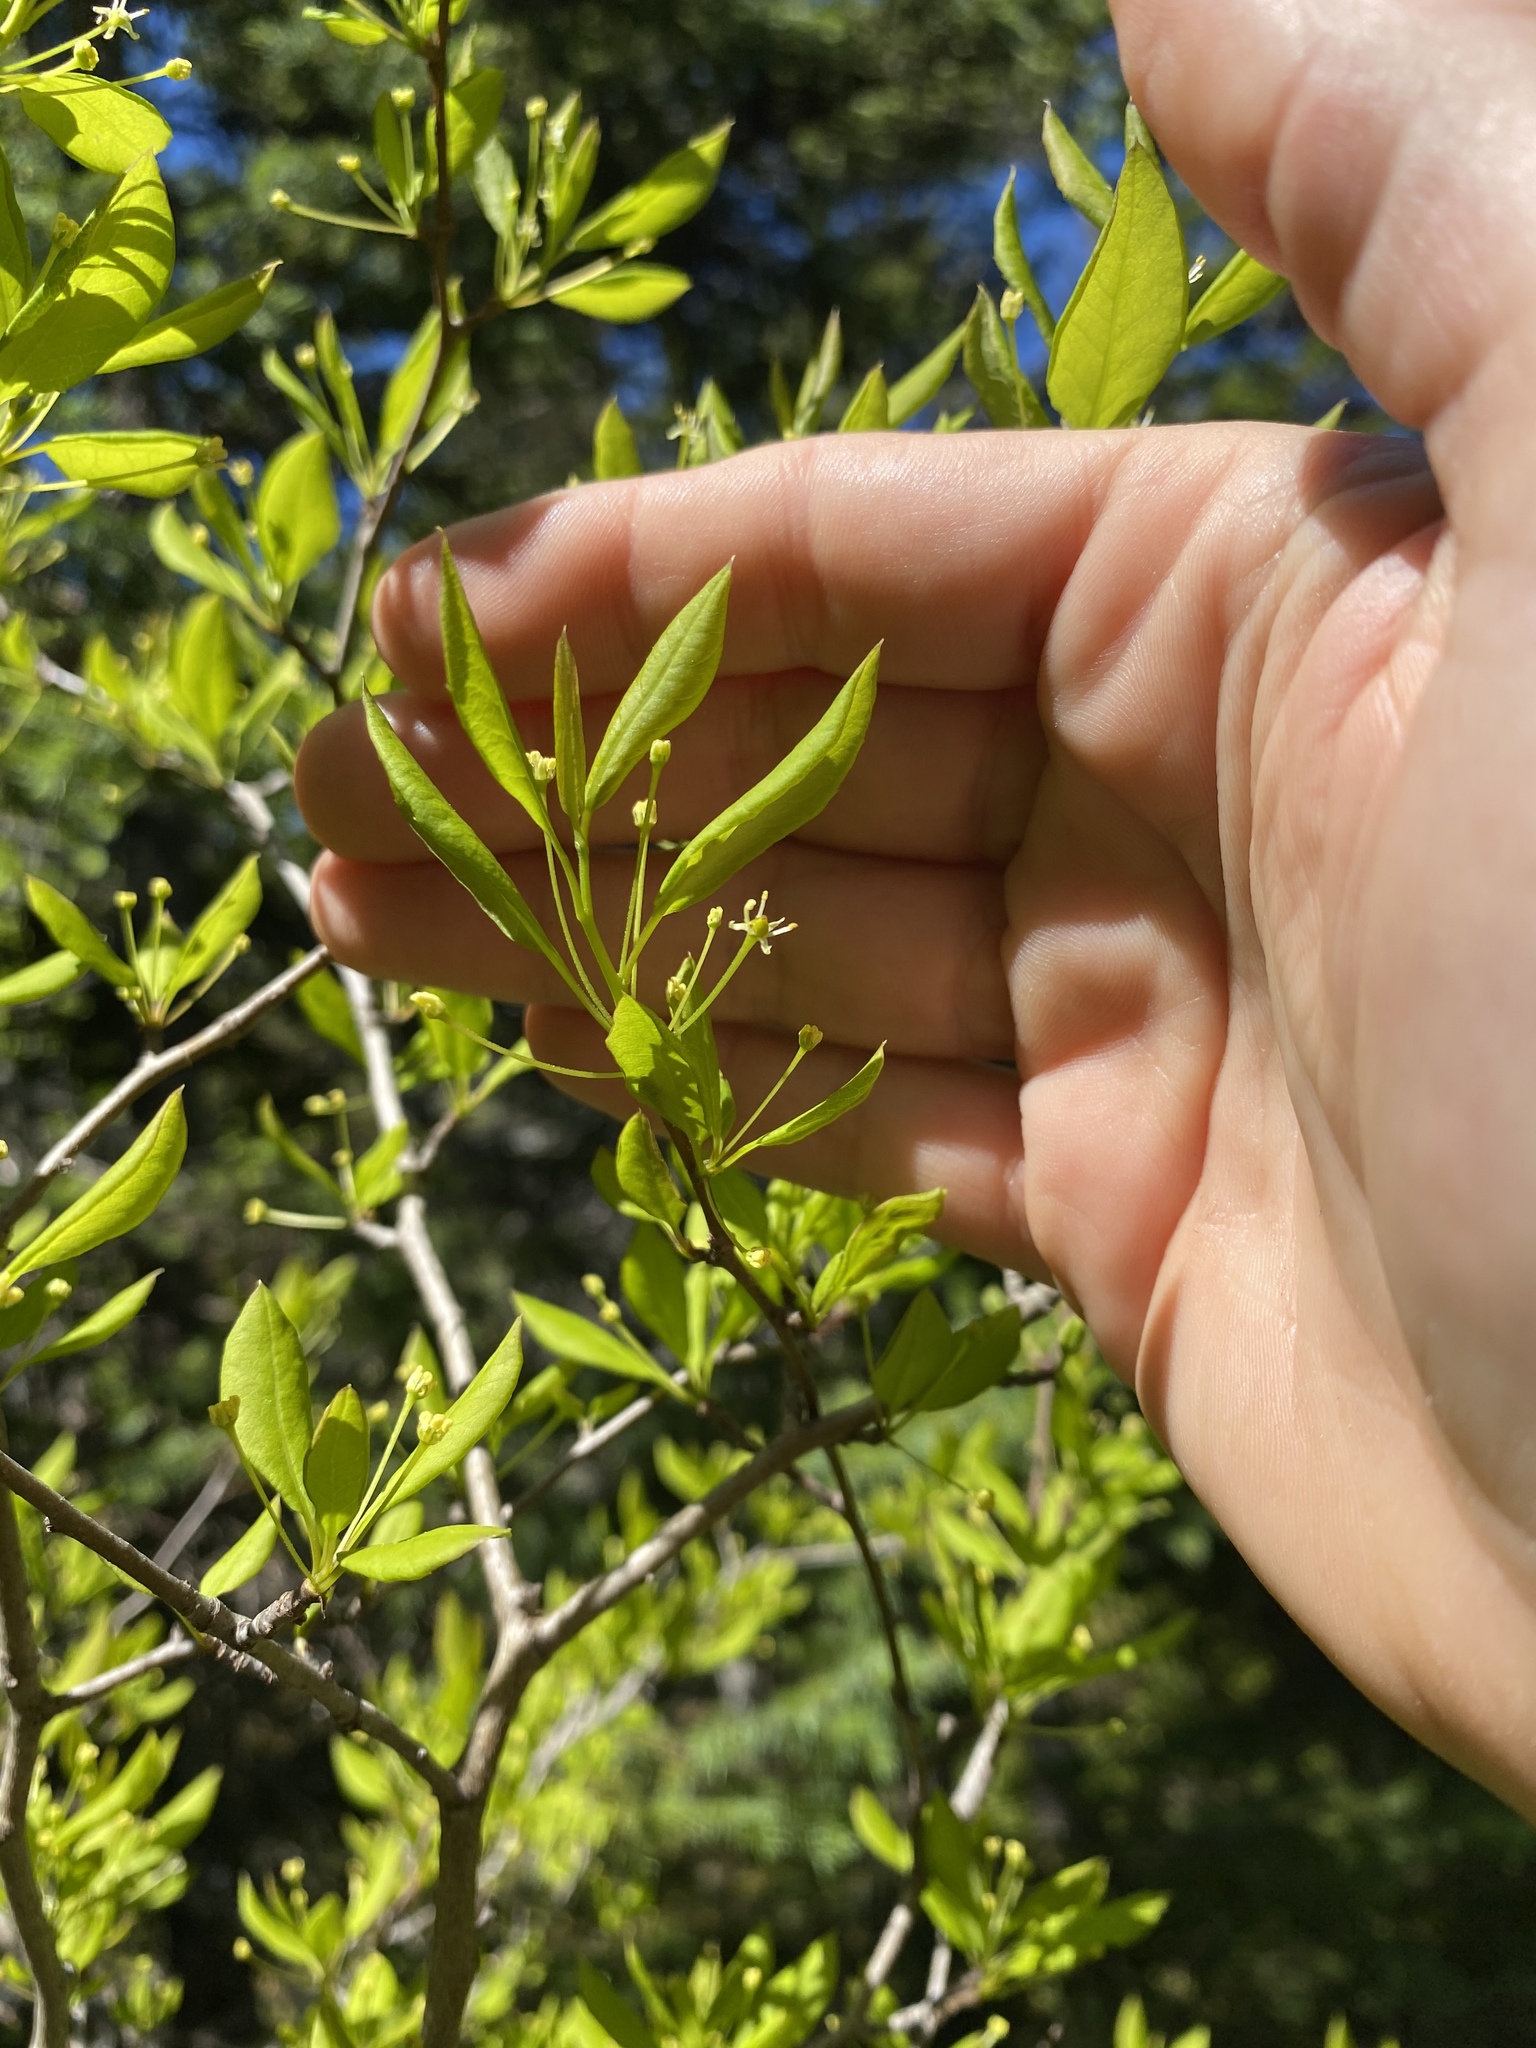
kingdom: Plantae
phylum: Tracheophyta
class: Magnoliopsida
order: Aquifoliales
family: Aquifoliaceae
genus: Ilex
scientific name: Ilex mucronata
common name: Catberry
